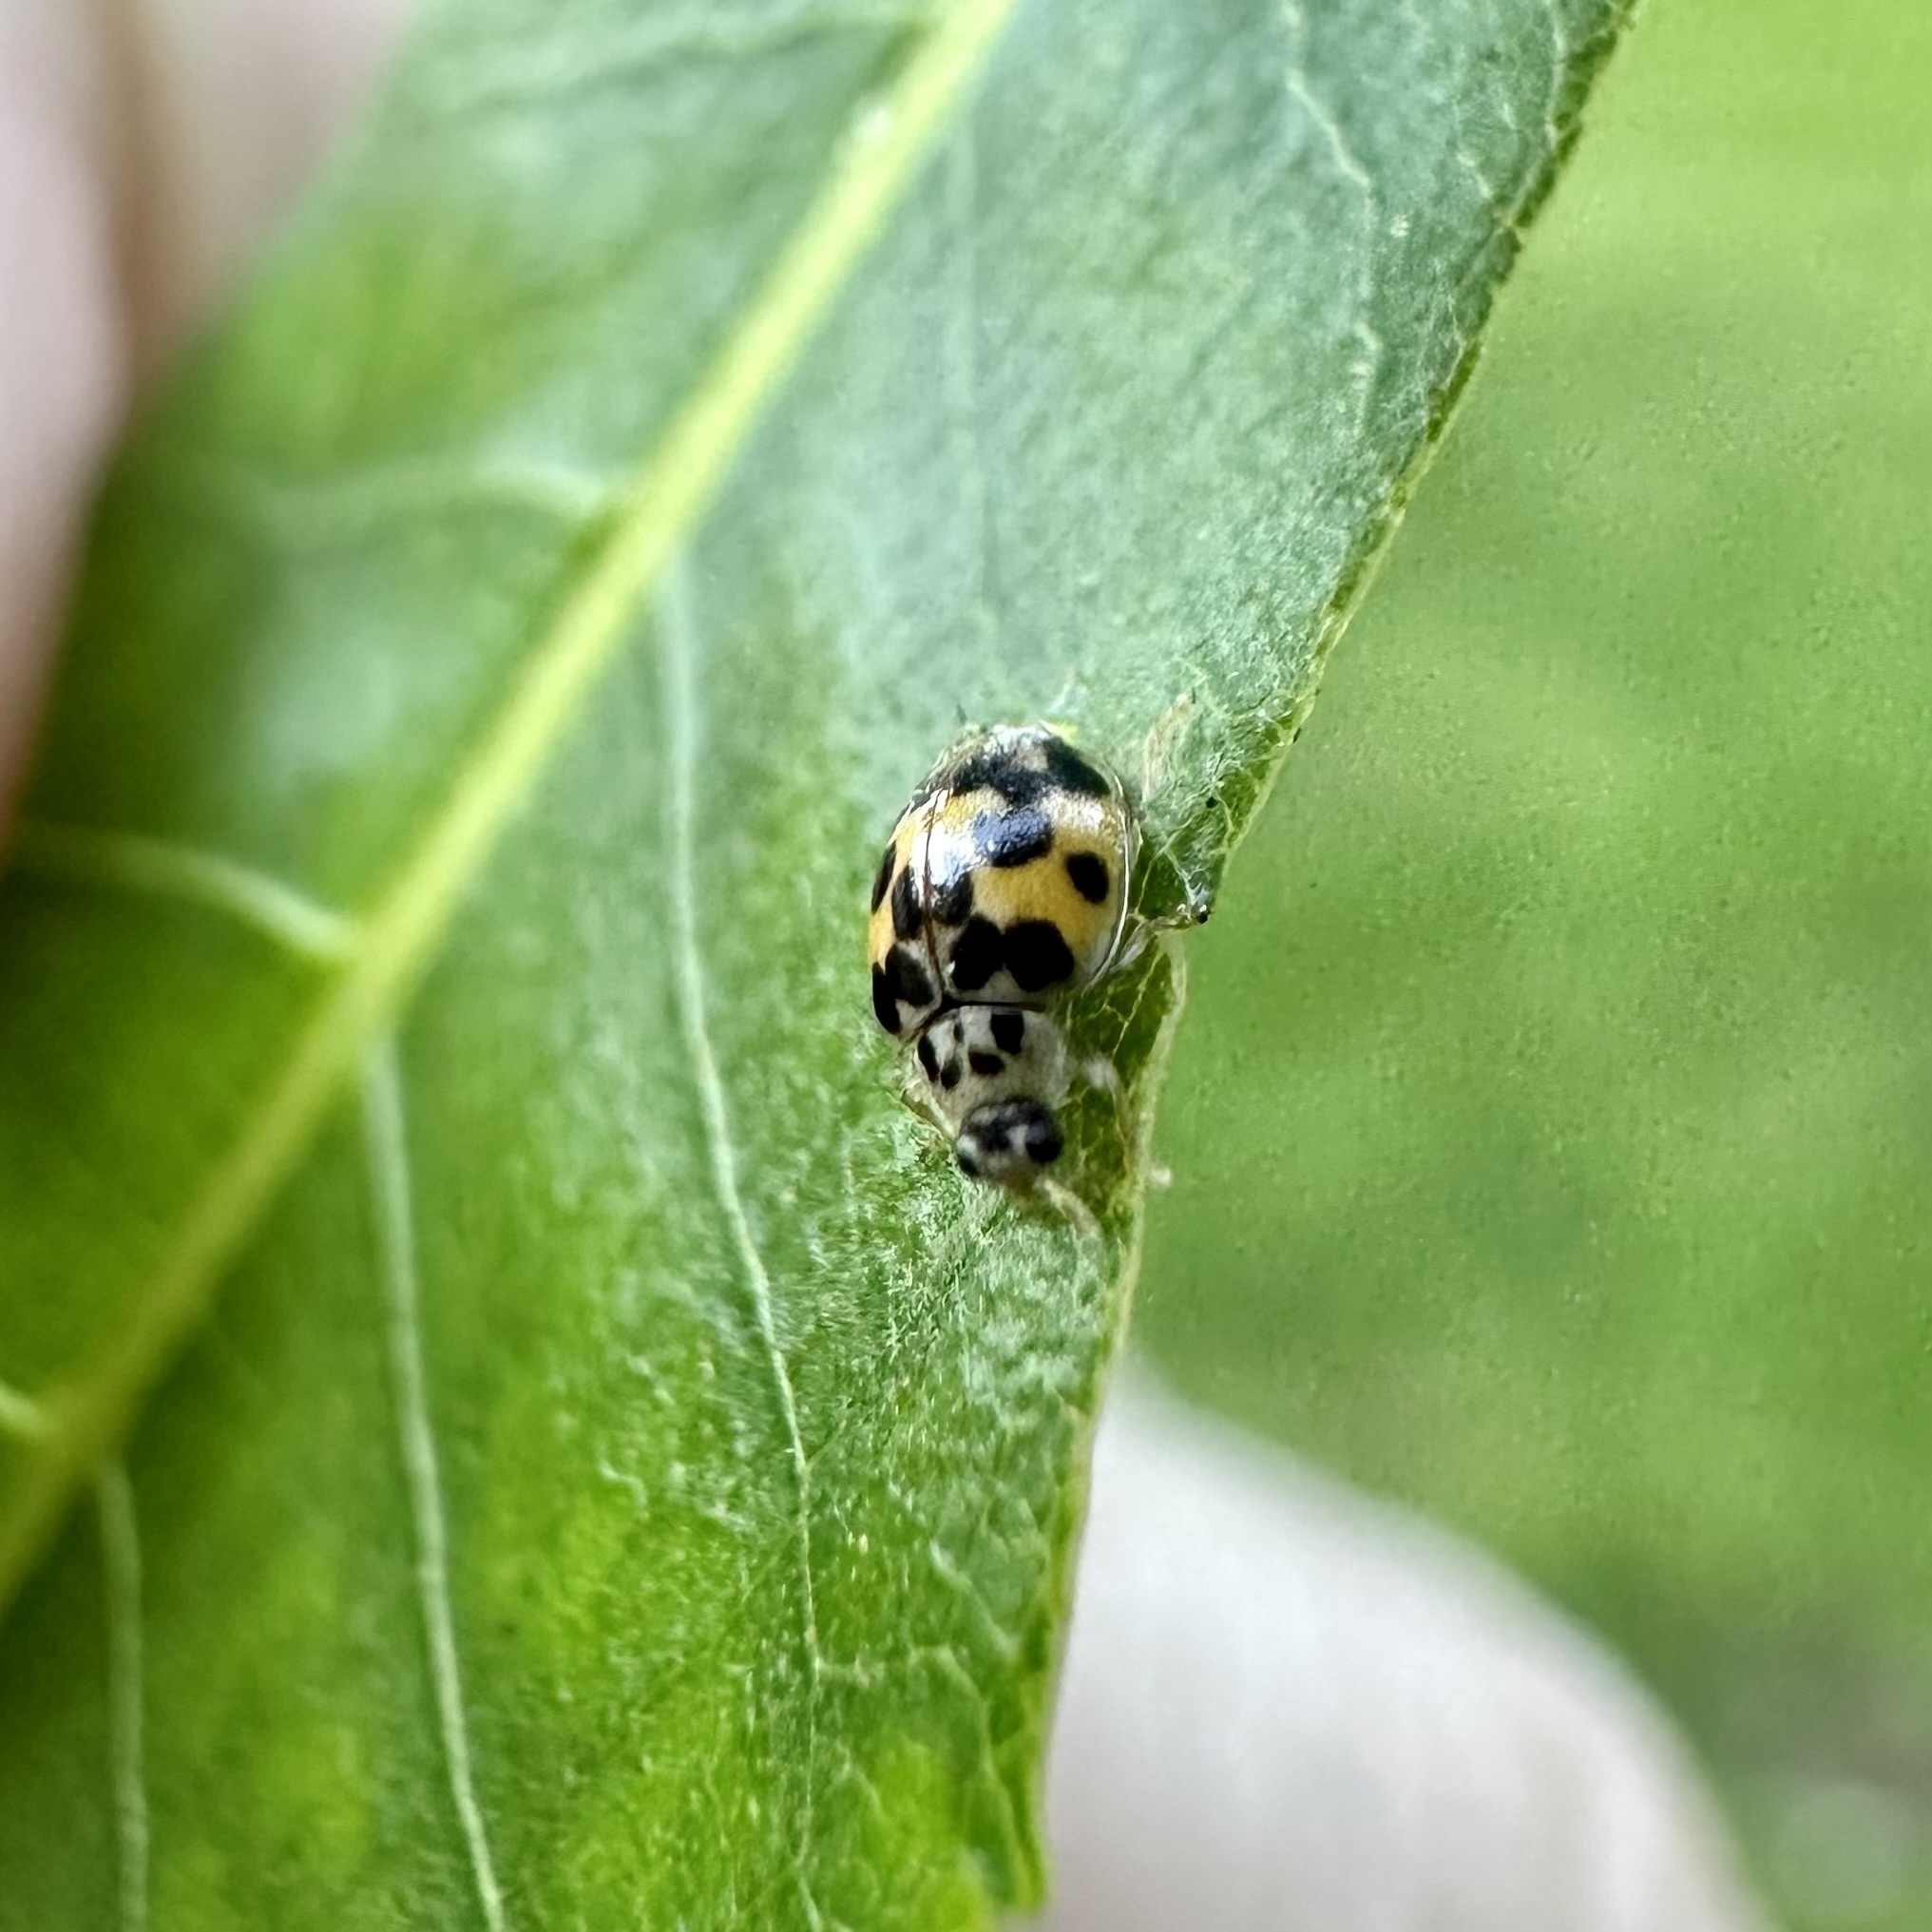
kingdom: Animalia
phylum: Arthropoda
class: Insecta
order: Coleoptera
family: Coccinellidae
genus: Psyllobora
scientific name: Psyllobora vigintimaculata
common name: Ladybird beetle
